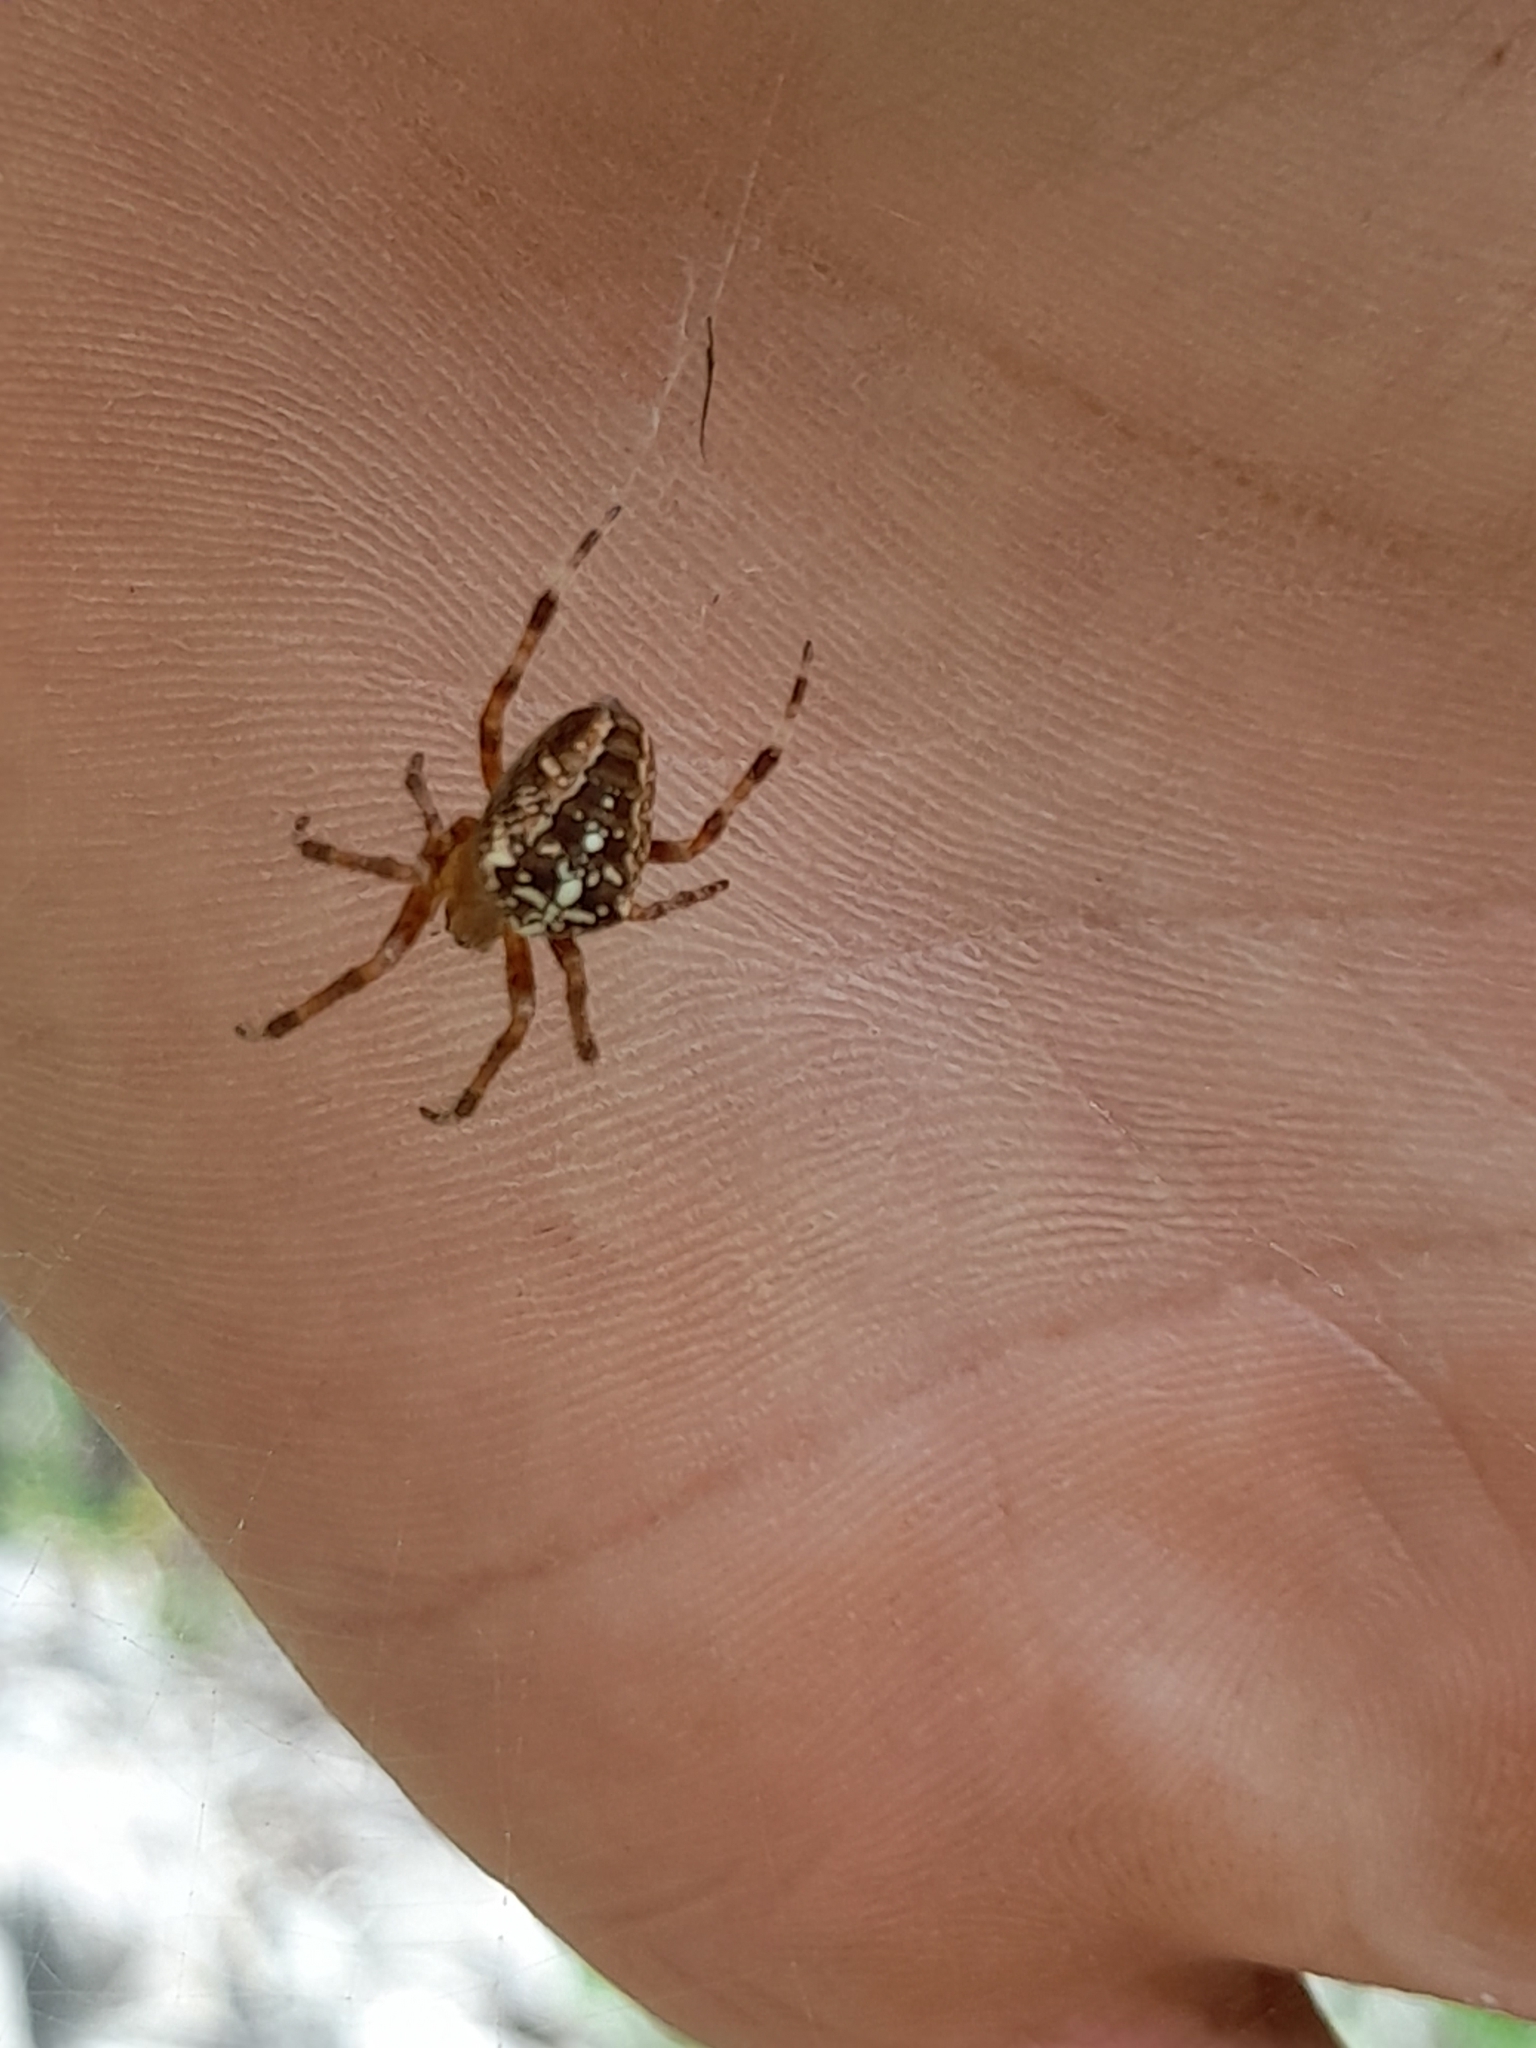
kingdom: Animalia
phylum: Arthropoda
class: Arachnida
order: Araneae
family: Araneidae
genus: Araneus
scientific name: Araneus diadematus
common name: Cross orbweaver
